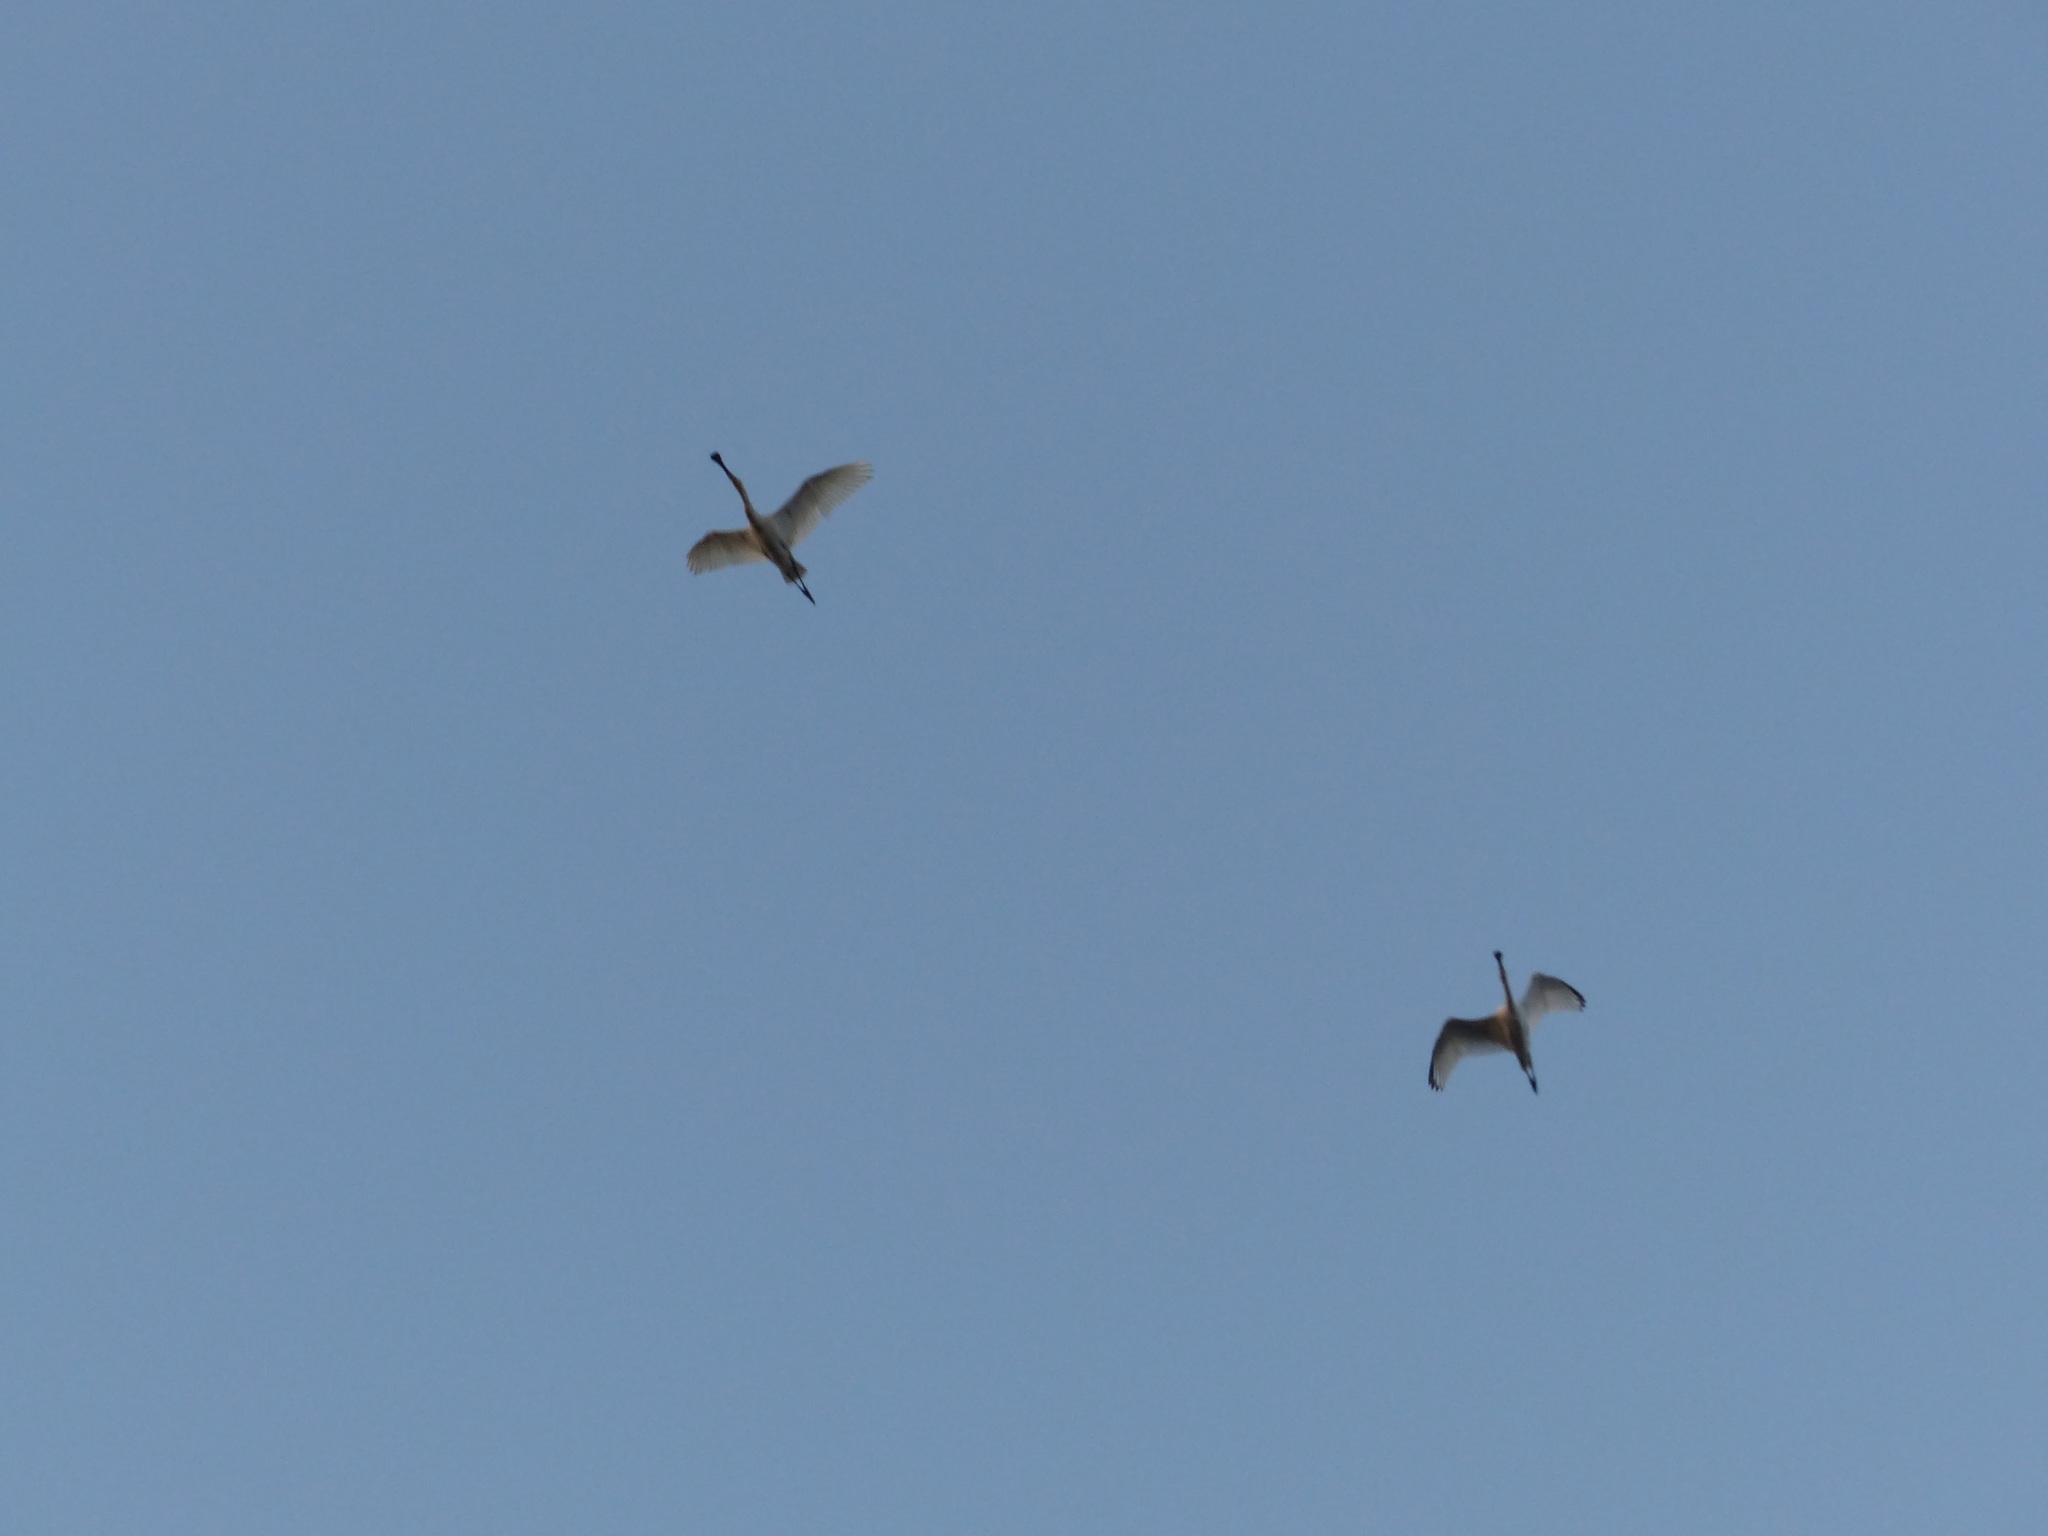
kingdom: Animalia
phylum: Chordata
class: Aves
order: Pelecaniformes
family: Threskiornithidae
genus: Platalea
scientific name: Platalea leucorodia
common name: Eurasian spoonbill
